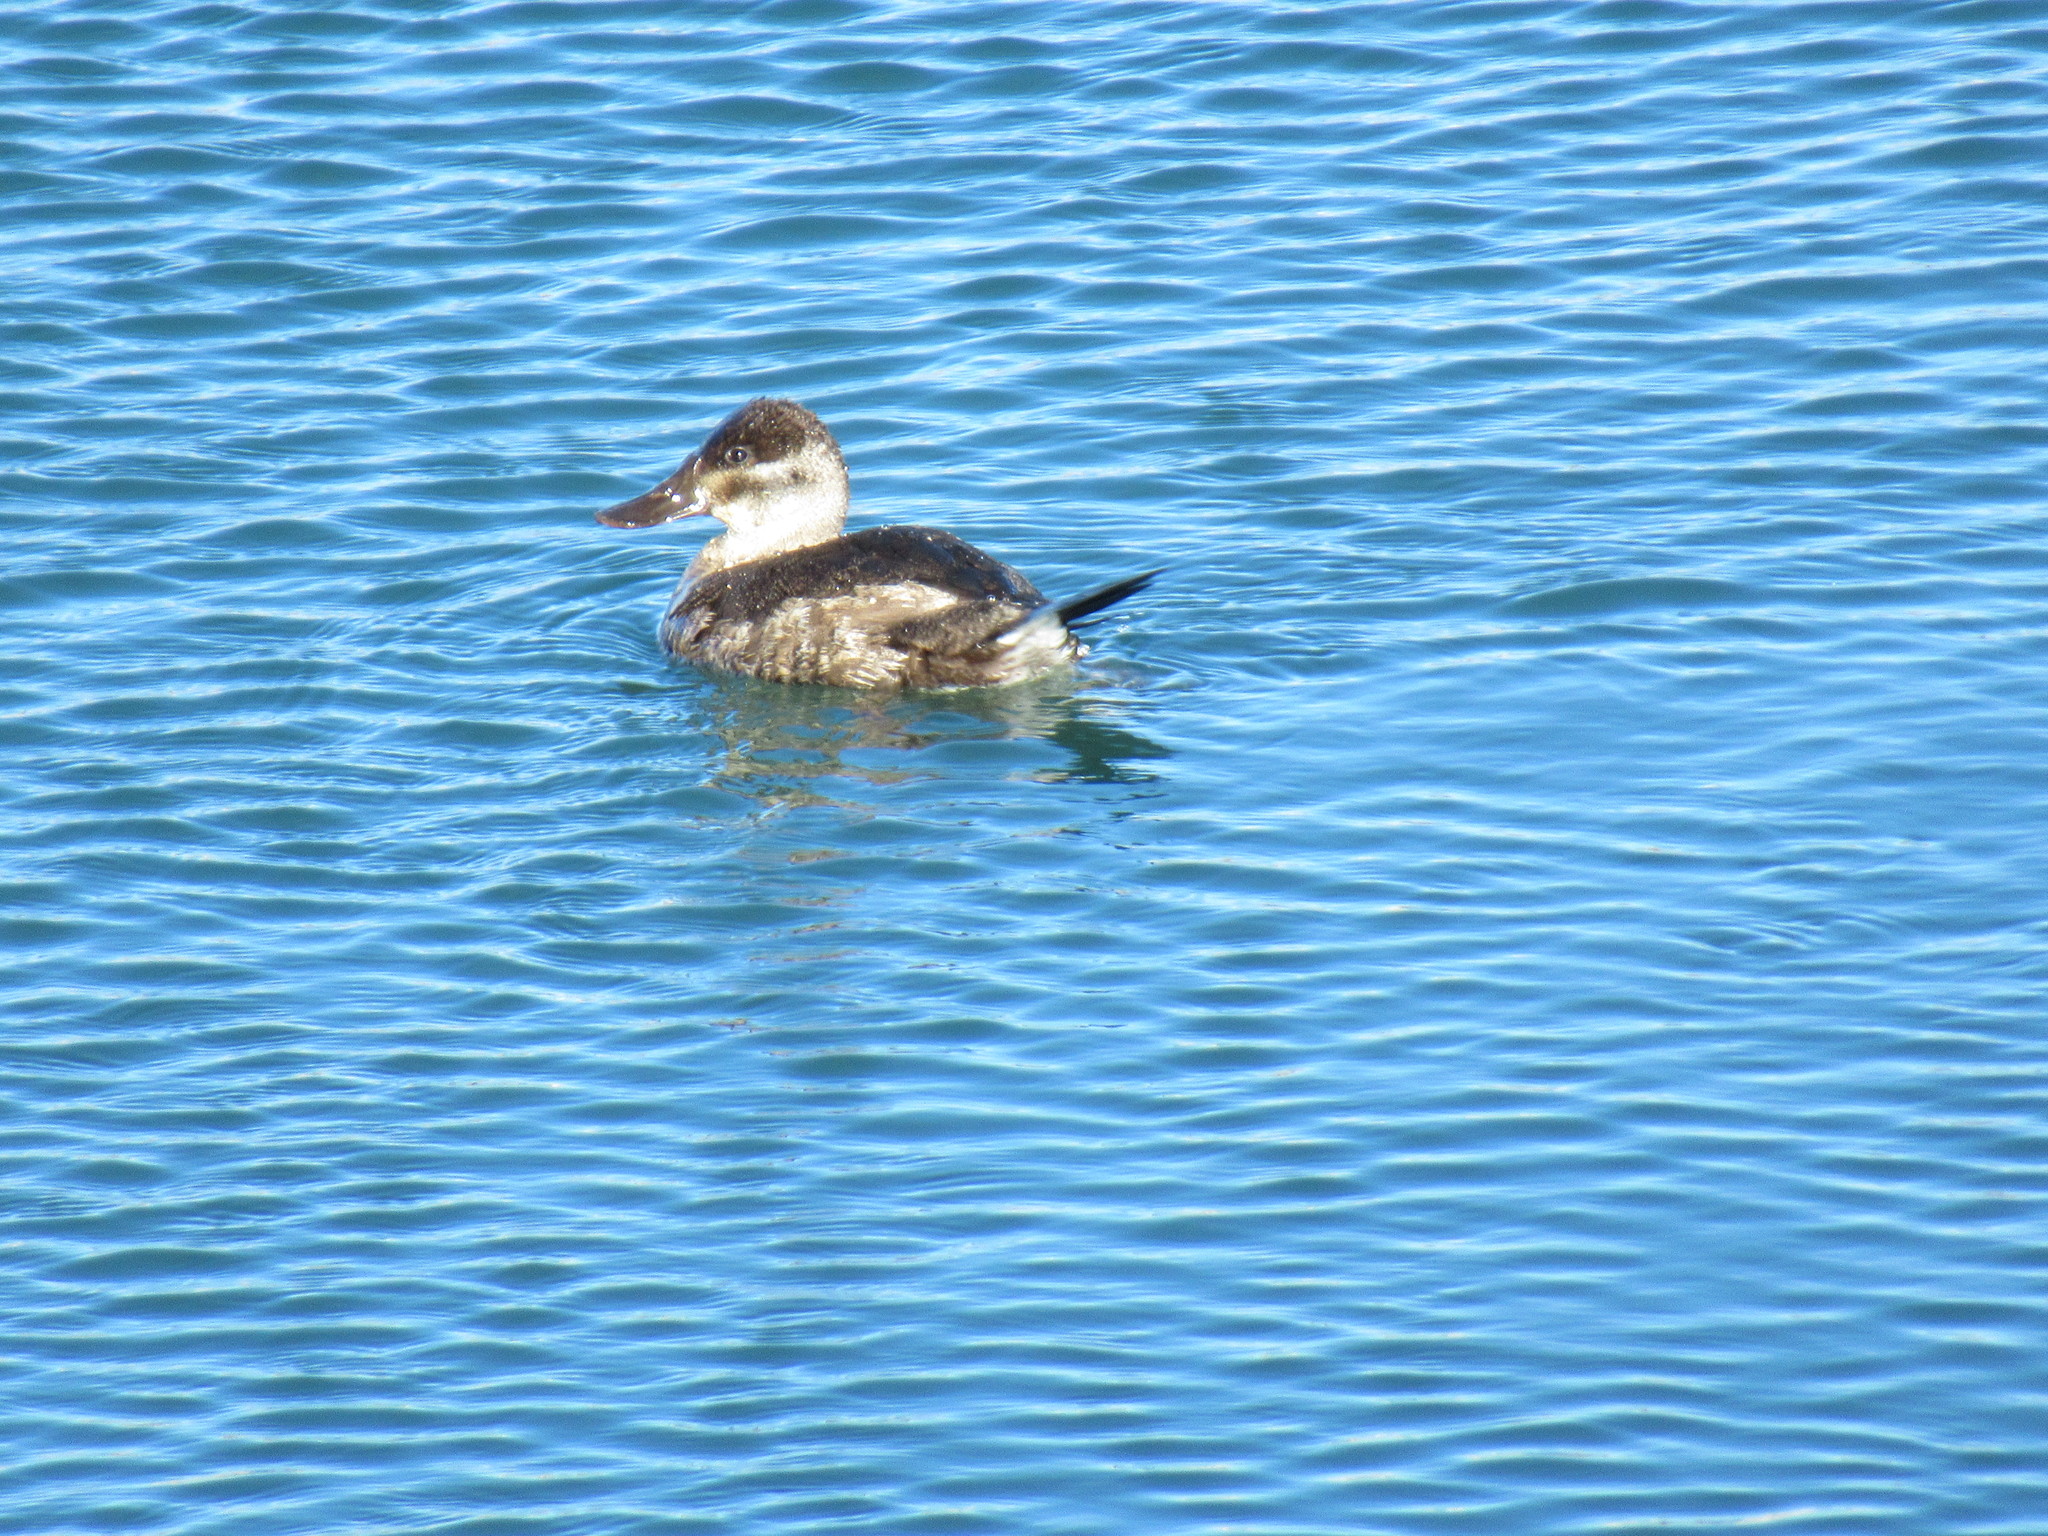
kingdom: Animalia
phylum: Chordata
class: Aves
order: Anseriformes
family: Anatidae
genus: Oxyura
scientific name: Oxyura jamaicensis
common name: Ruddy duck
